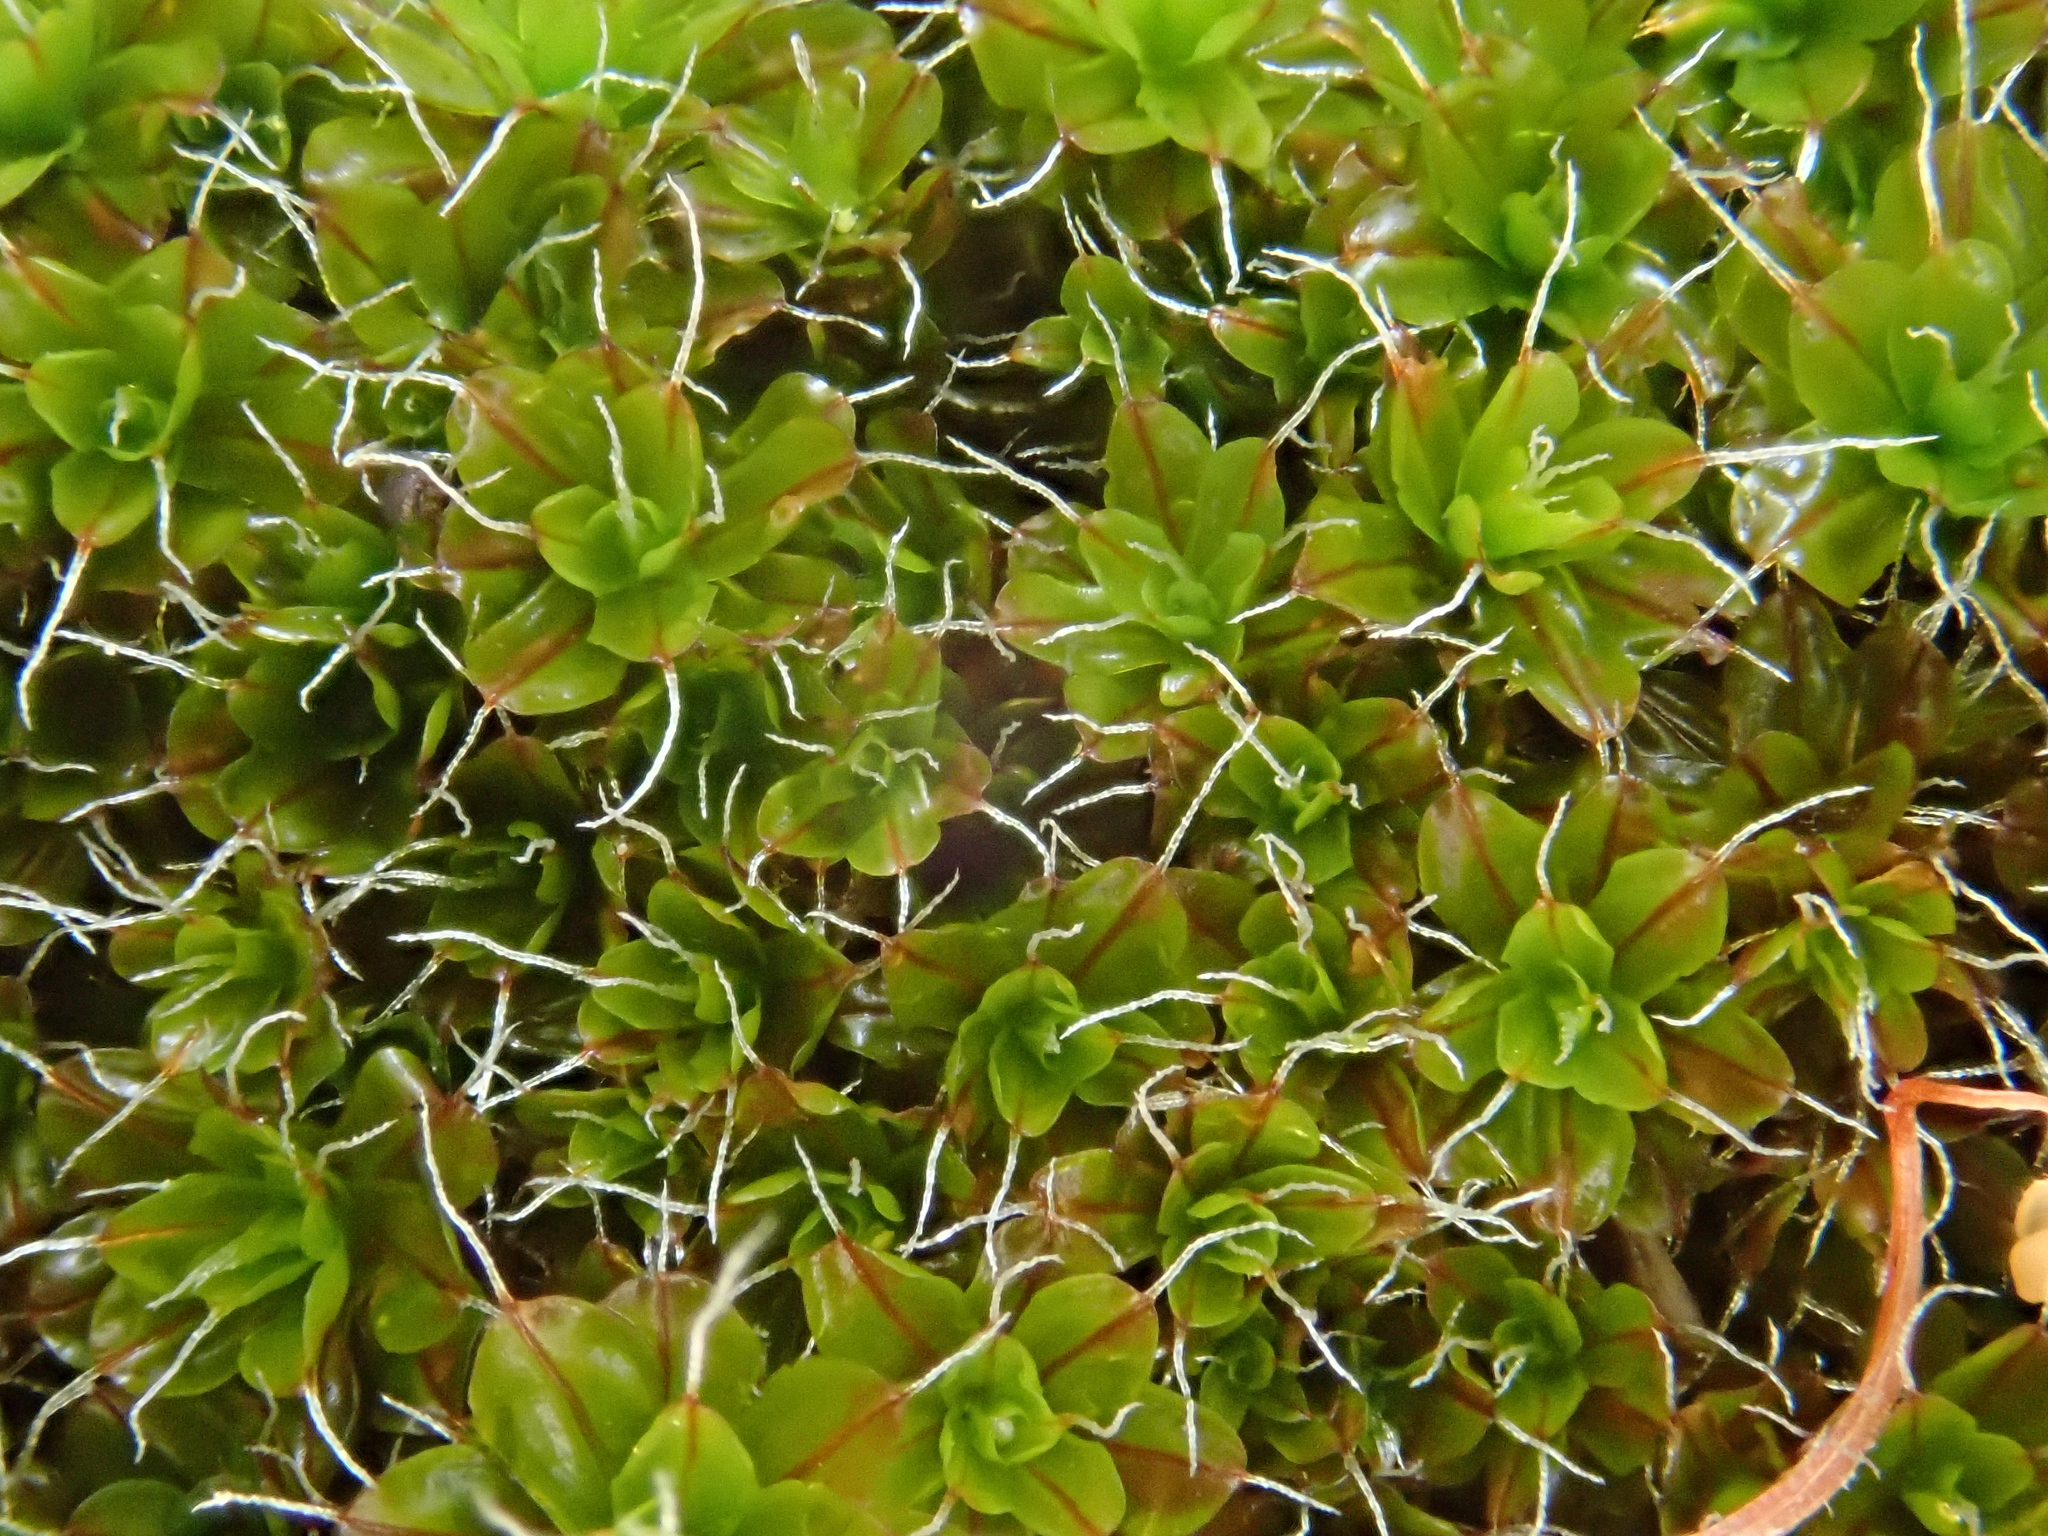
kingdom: Plantae
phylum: Bryophyta
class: Bryopsida
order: Pottiales
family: Pottiaceae
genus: Syntrichia
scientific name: Syntrichia montana
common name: Intermediate screw-moss
